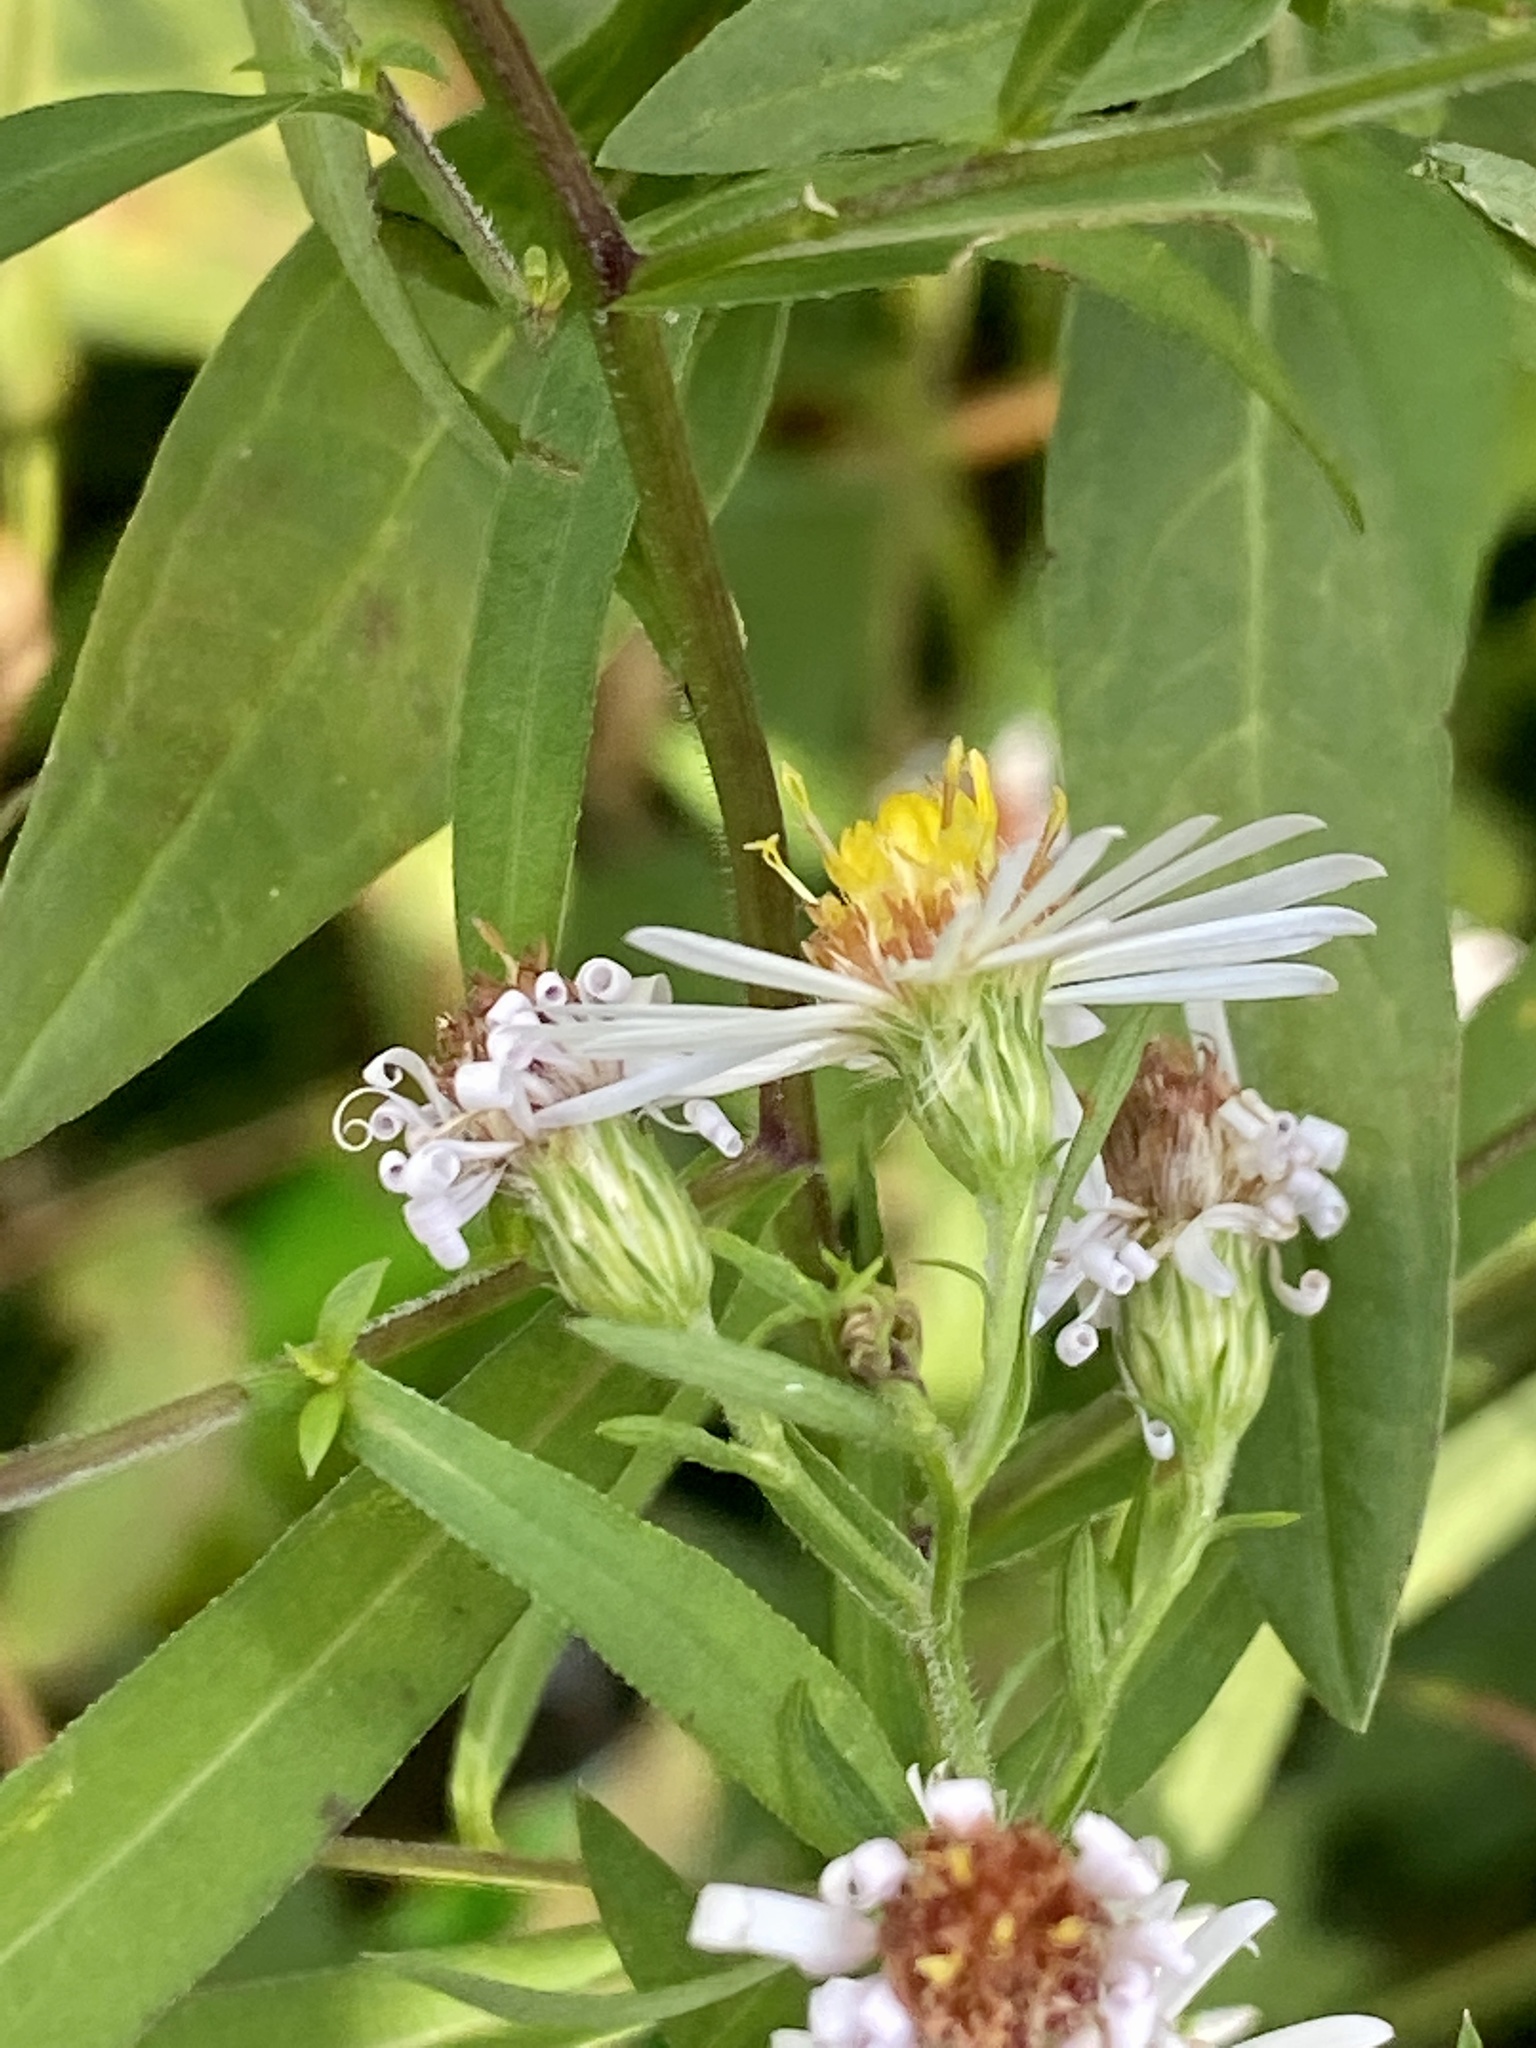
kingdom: Plantae
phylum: Tracheophyta
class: Magnoliopsida
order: Asterales
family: Asteraceae
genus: Symphyotrichum
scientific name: Symphyotrichum lanceolatum
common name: Panicled aster
